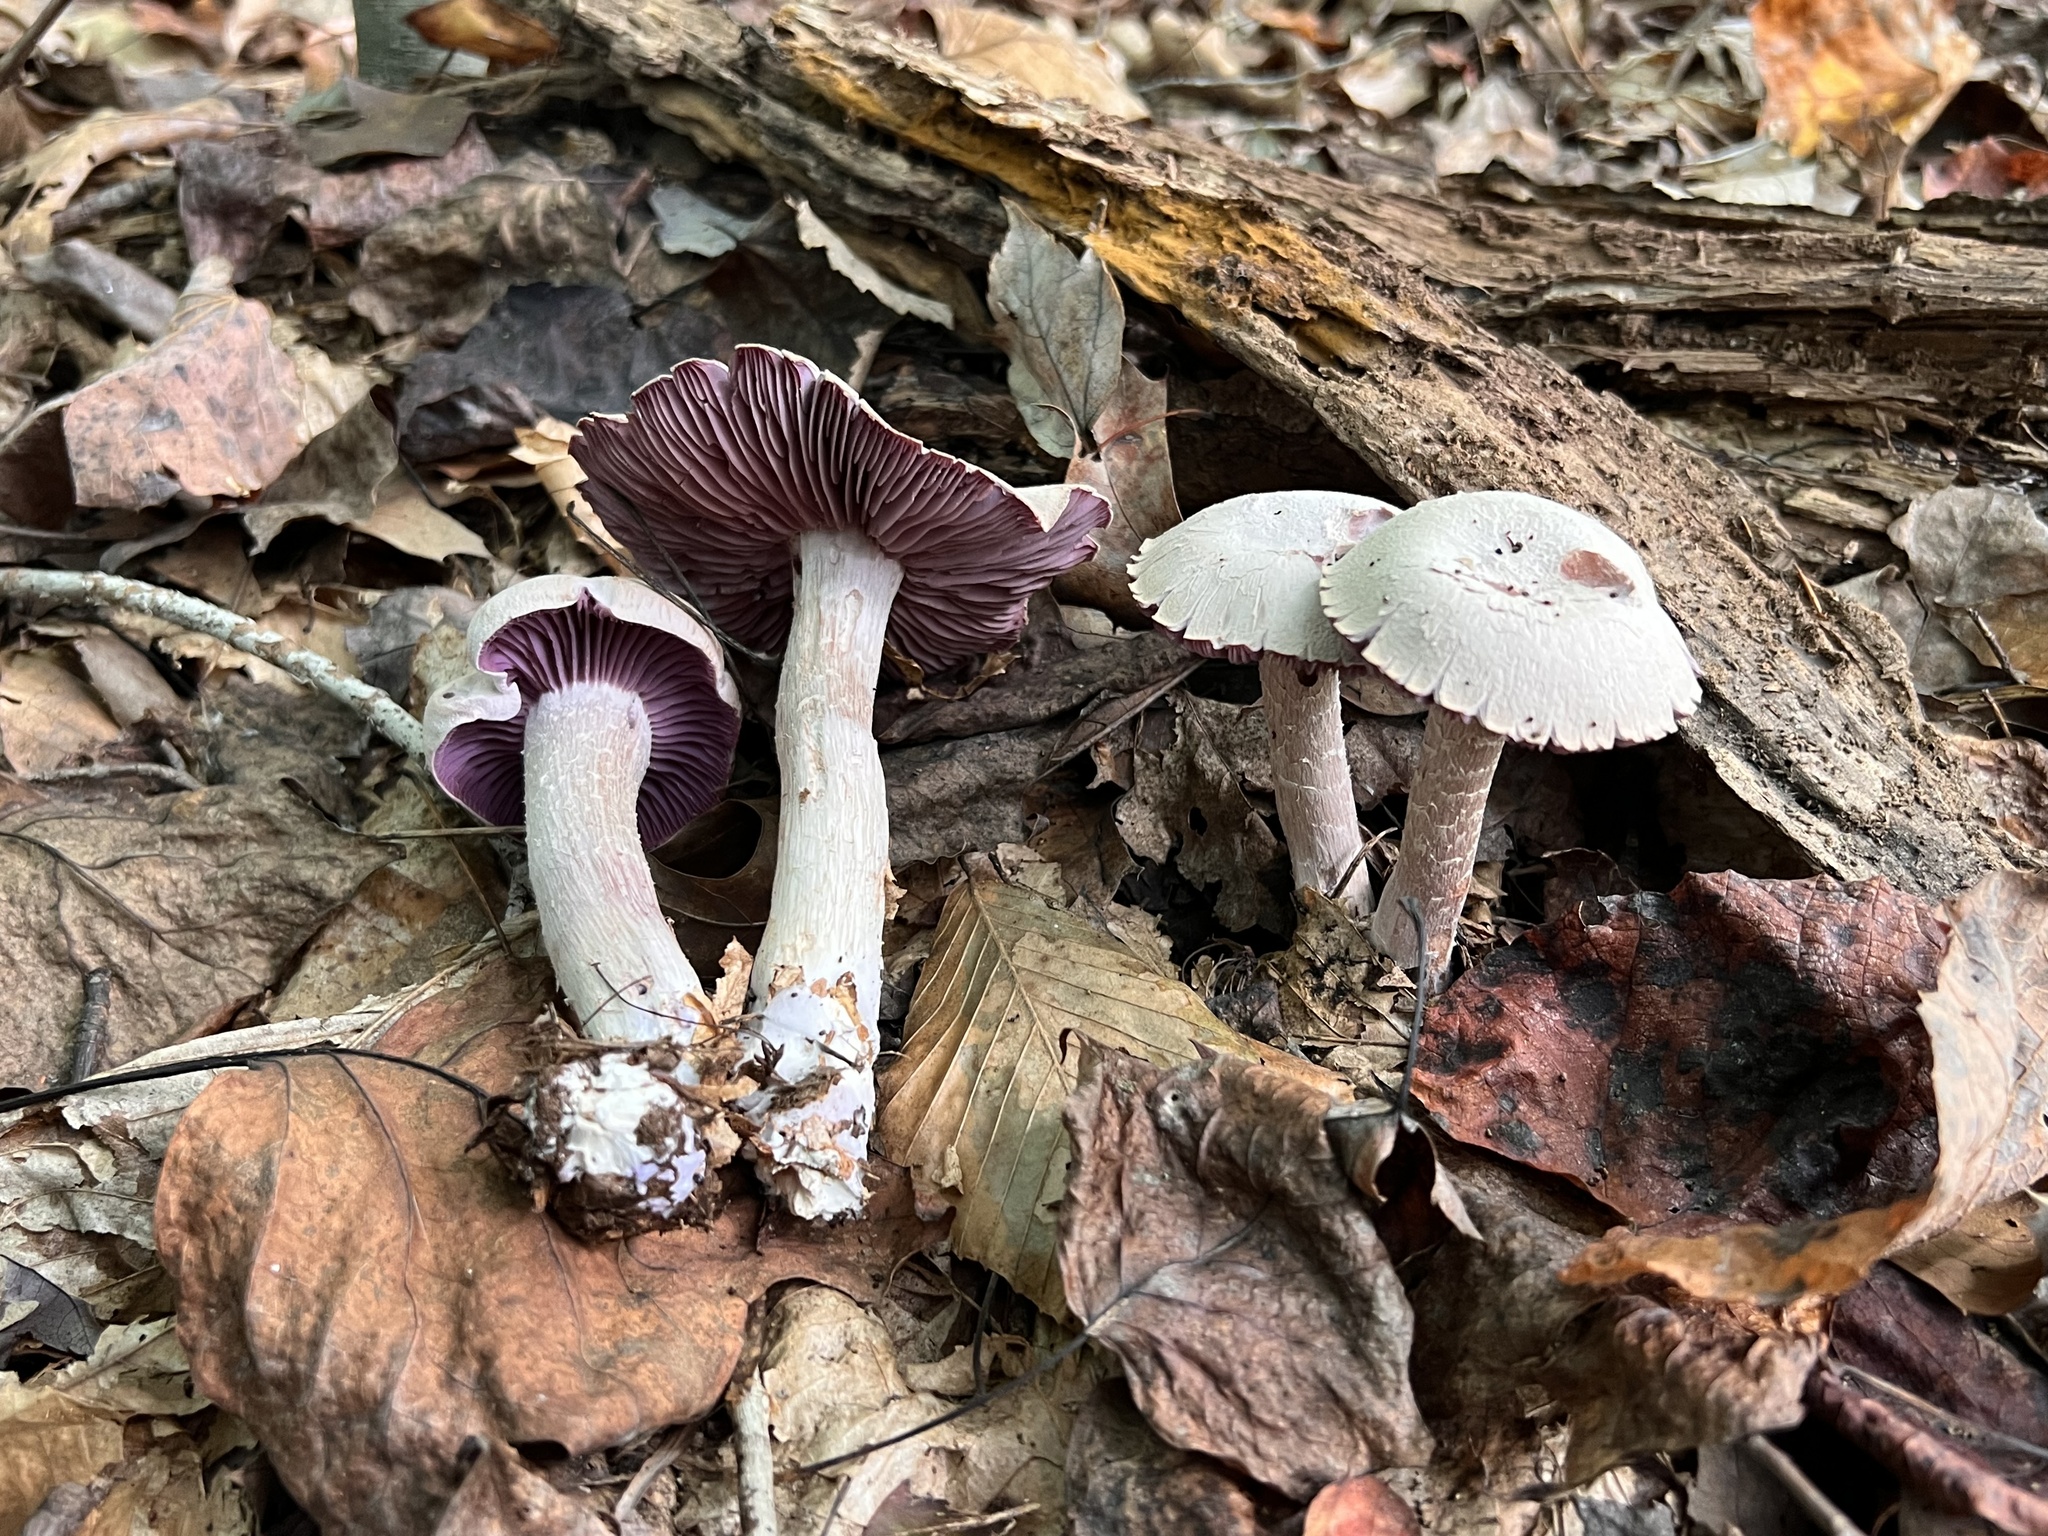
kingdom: Fungi
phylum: Basidiomycota
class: Agaricomycetes
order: Agaricales
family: Hydnangiaceae
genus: Laccaria
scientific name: Laccaria ochropurpurea
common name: Purple laccaria
